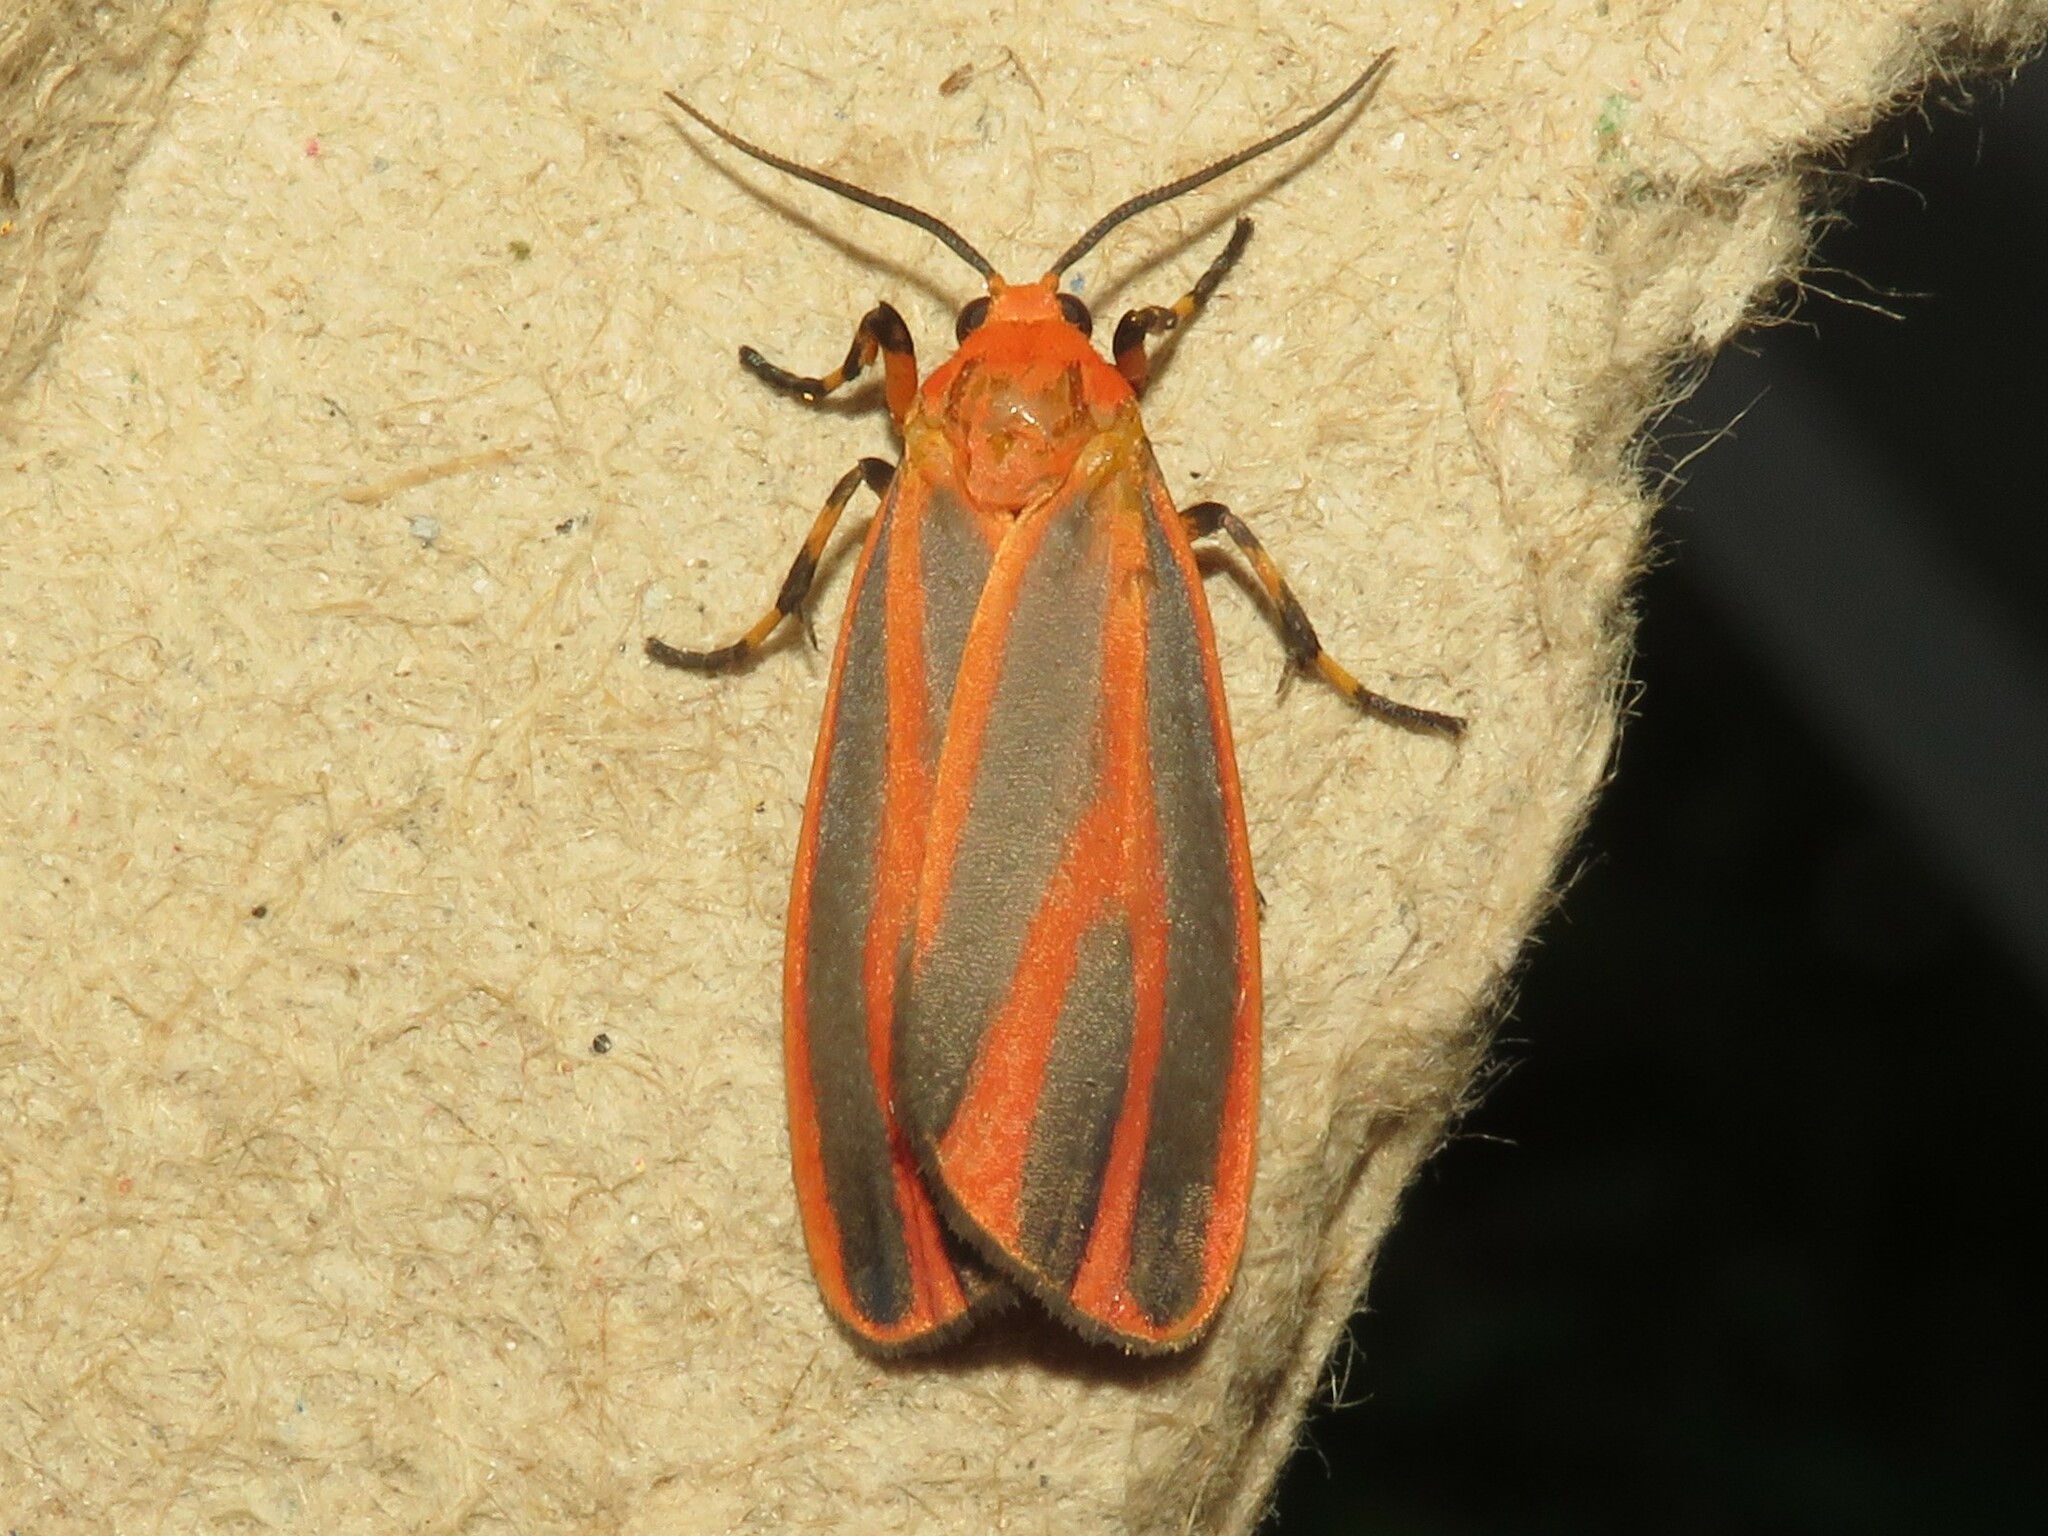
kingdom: Animalia
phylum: Arthropoda
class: Insecta
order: Lepidoptera
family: Erebidae
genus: Hypoprepia
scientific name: Hypoprepia miniata
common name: Scarlet-winged lichen moth
